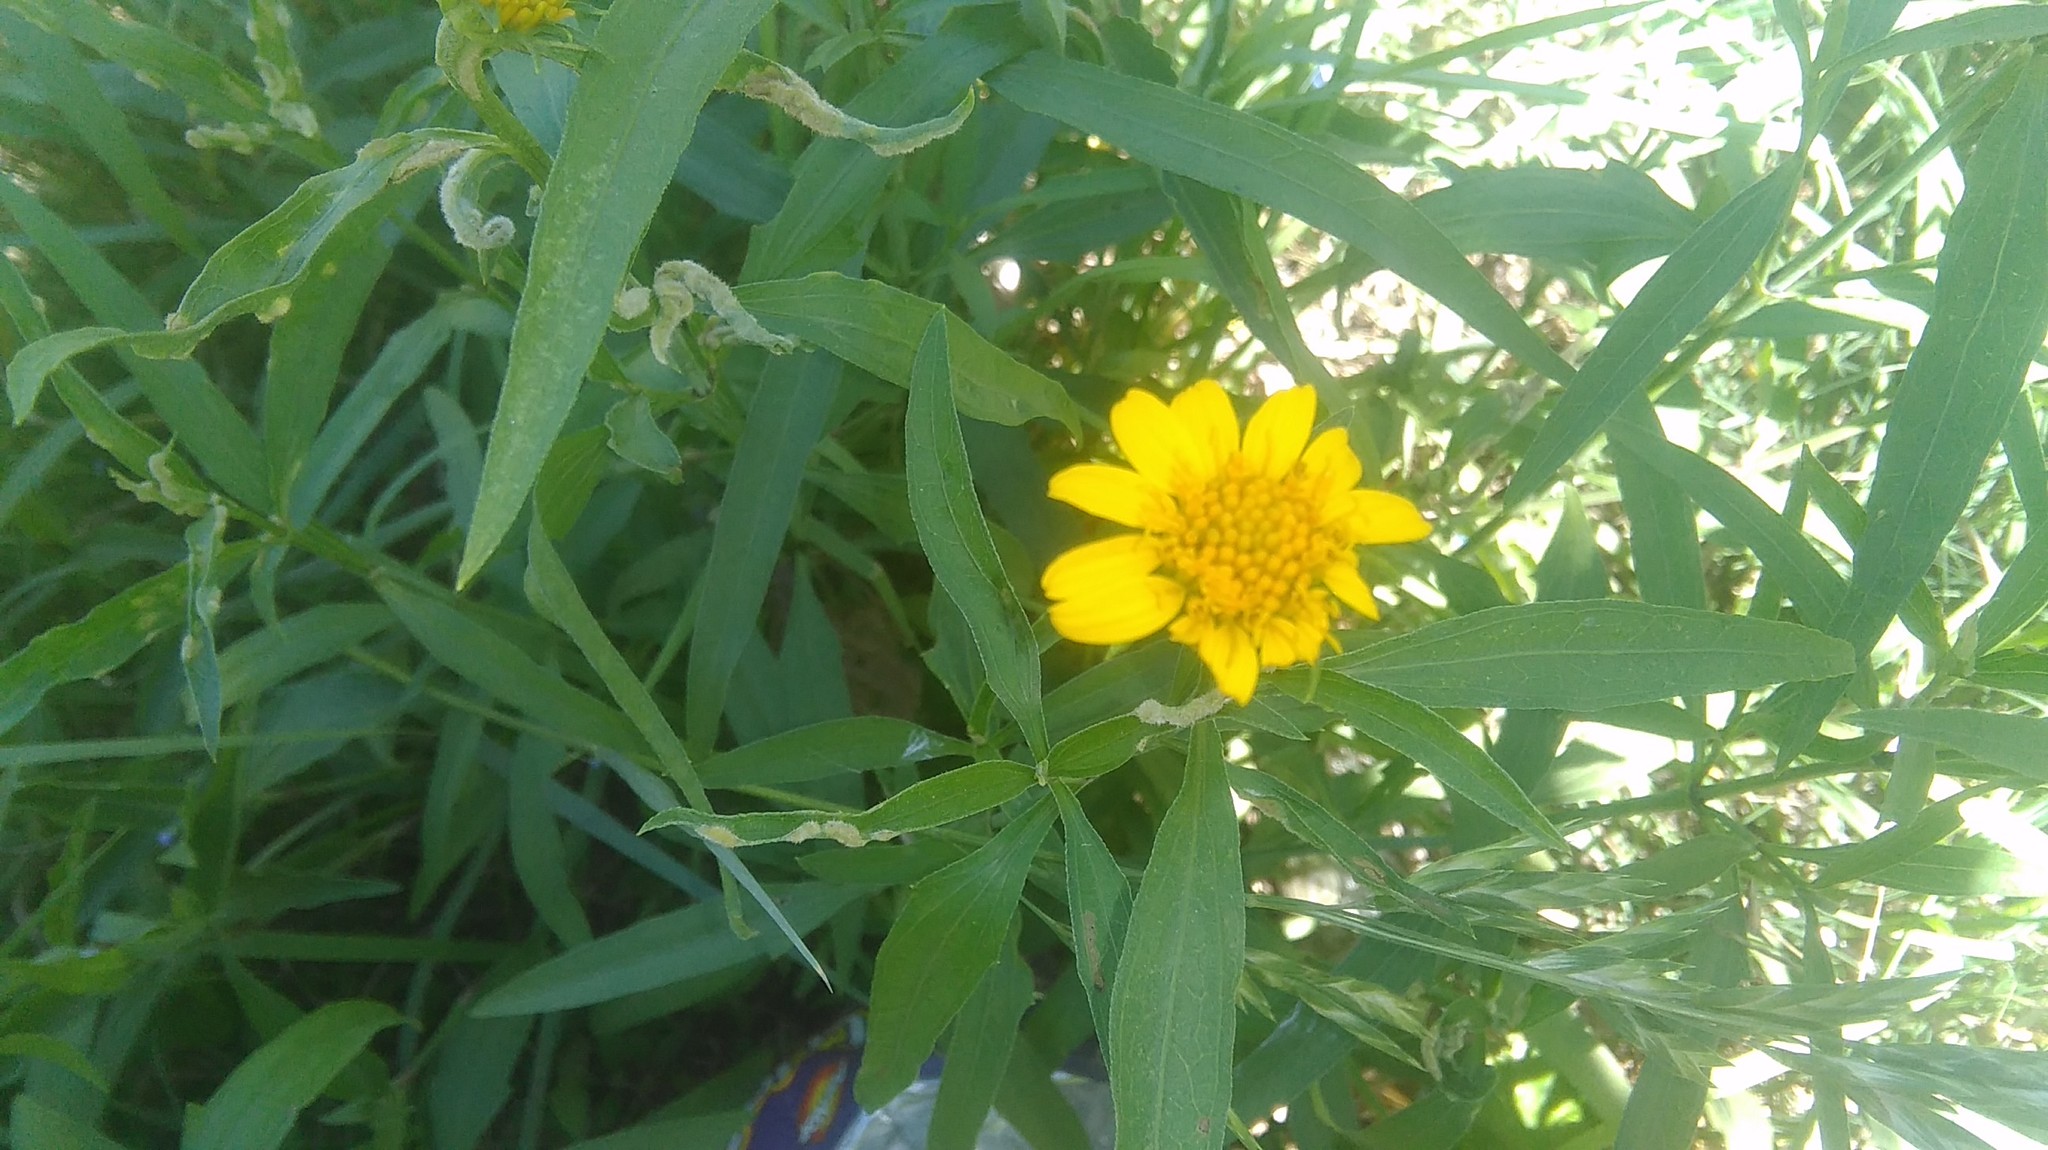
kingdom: Plantae
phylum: Tracheophyta
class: Magnoliopsida
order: Asterales
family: Asteraceae
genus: Pascalia
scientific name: Pascalia glauca
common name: Beach creeping oxeye
